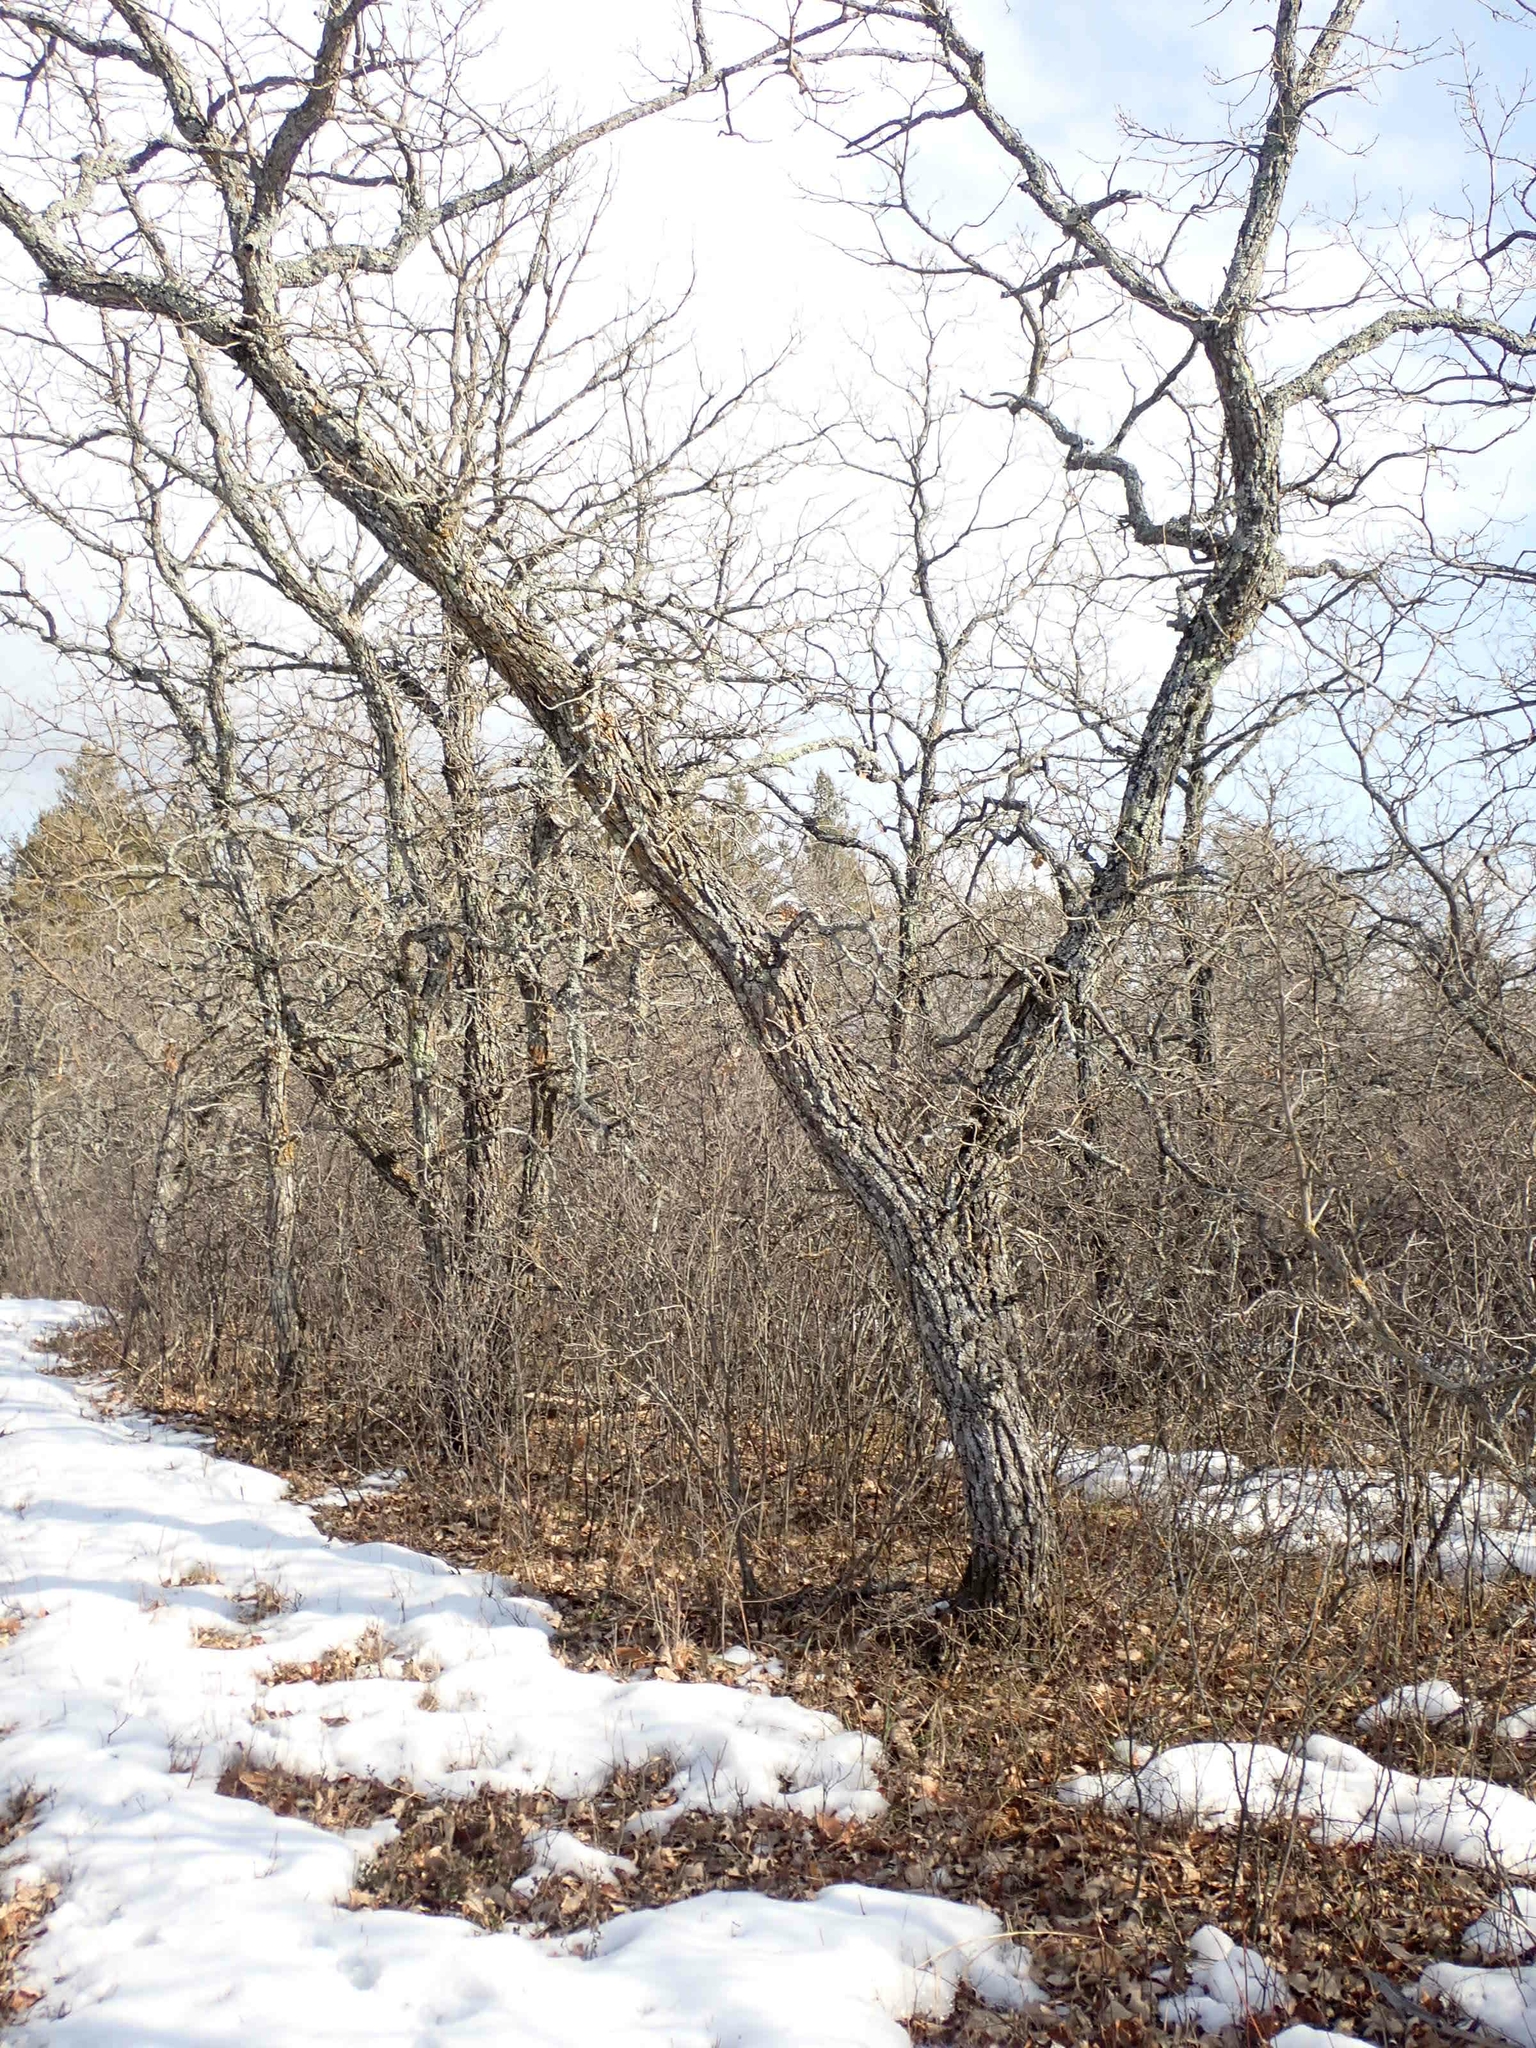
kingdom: Plantae
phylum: Tracheophyta
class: Magnoliopsida
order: Fagales
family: Fagaceae
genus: Quercus
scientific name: Quercus macrocarpa
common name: Bur oak
